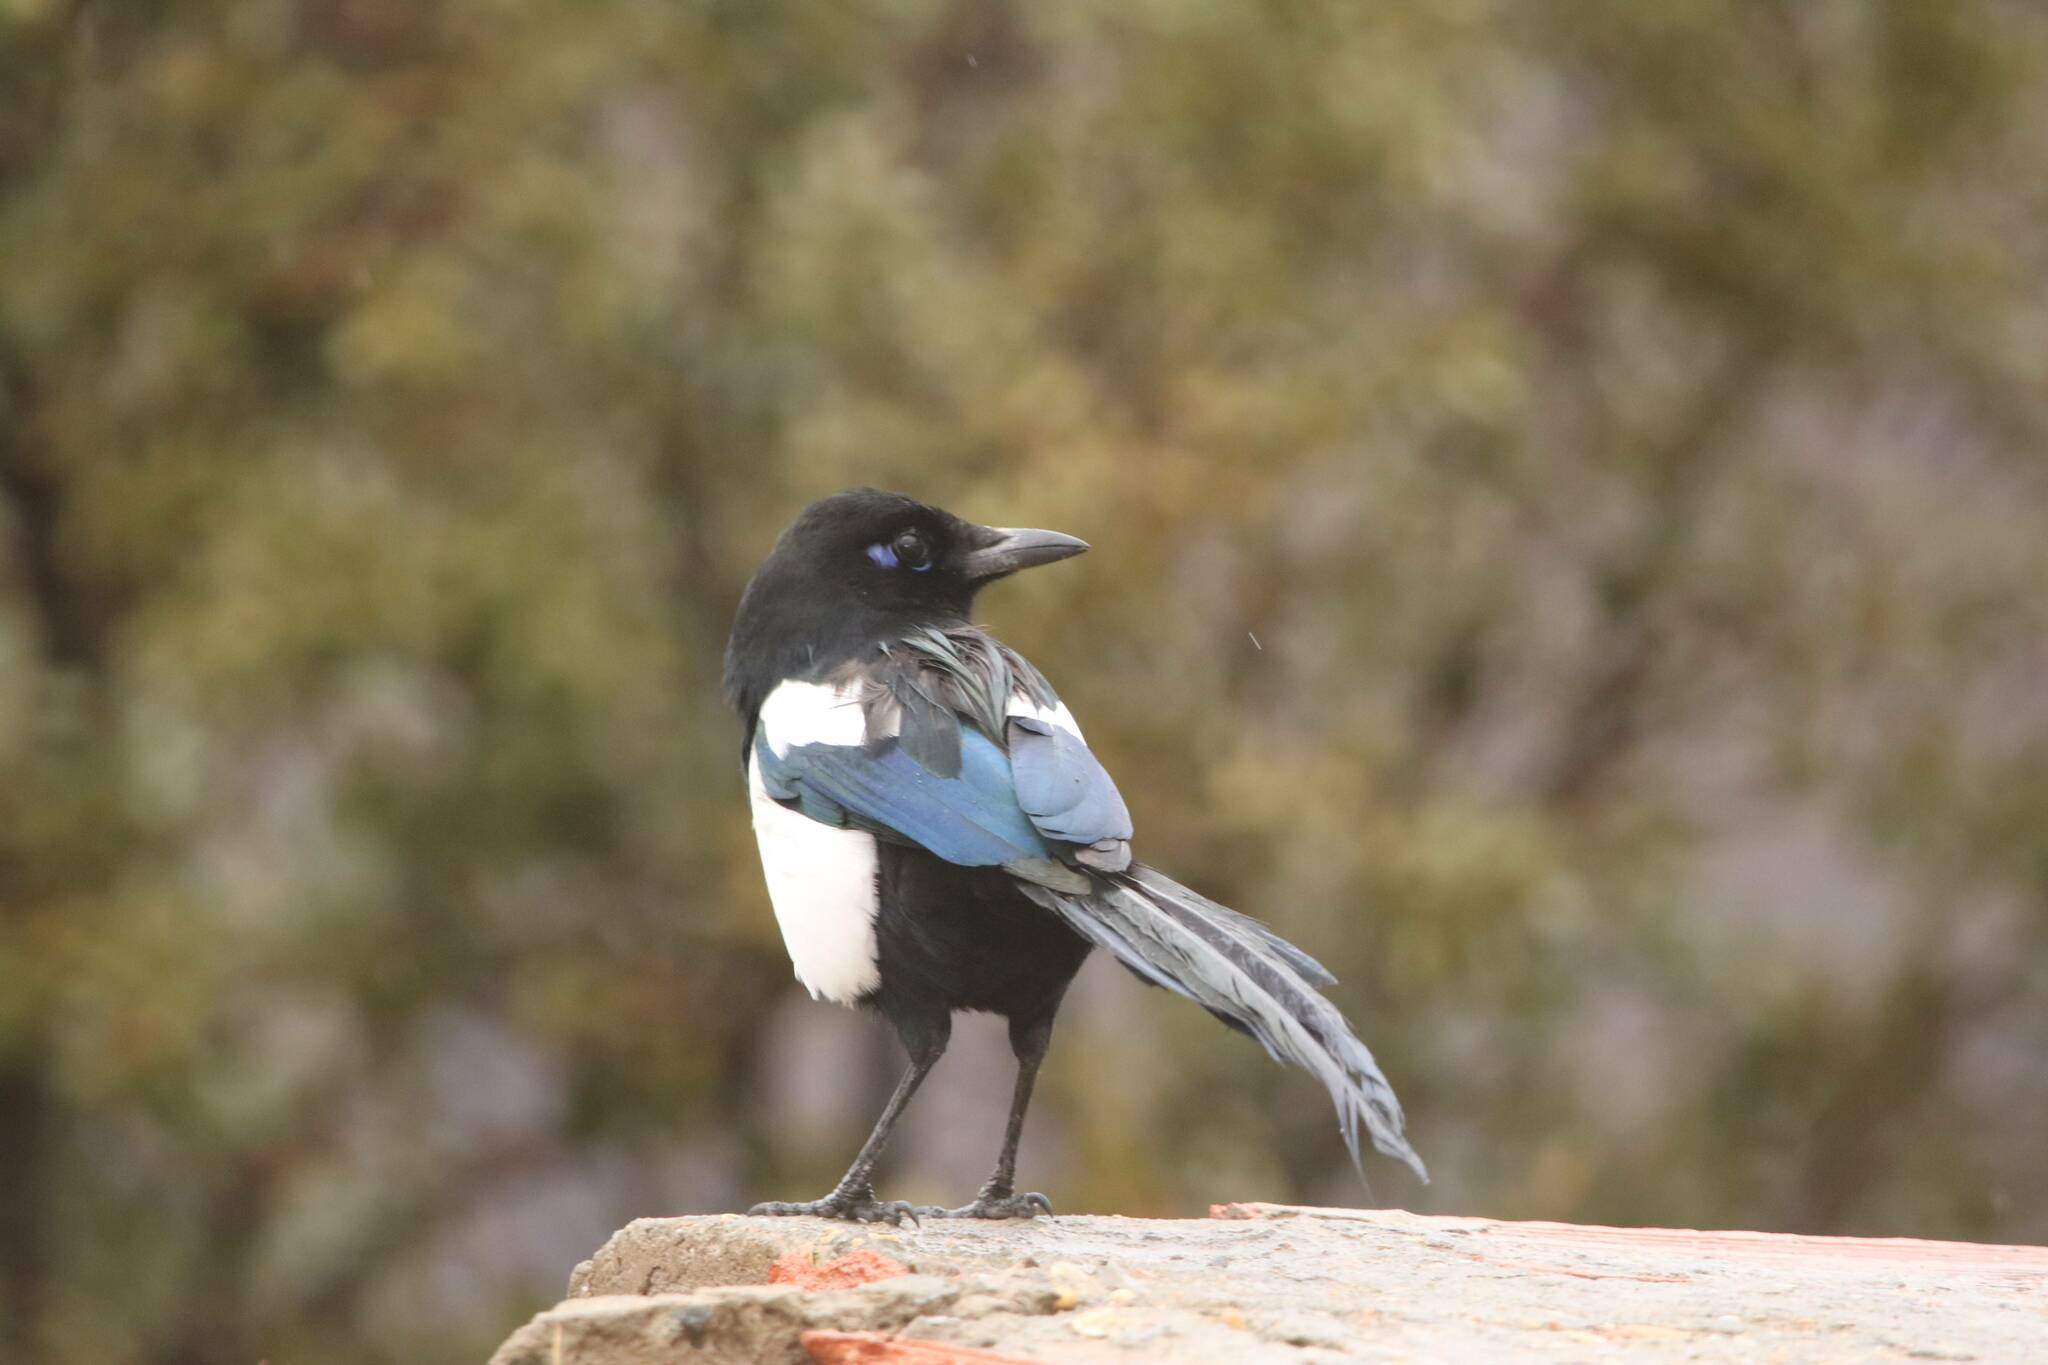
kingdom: Animalia
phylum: Chordata
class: Aves
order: Passeriformes
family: Corvidae
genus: Pica
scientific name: Pica mauritanica
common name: Maghreb magpie
